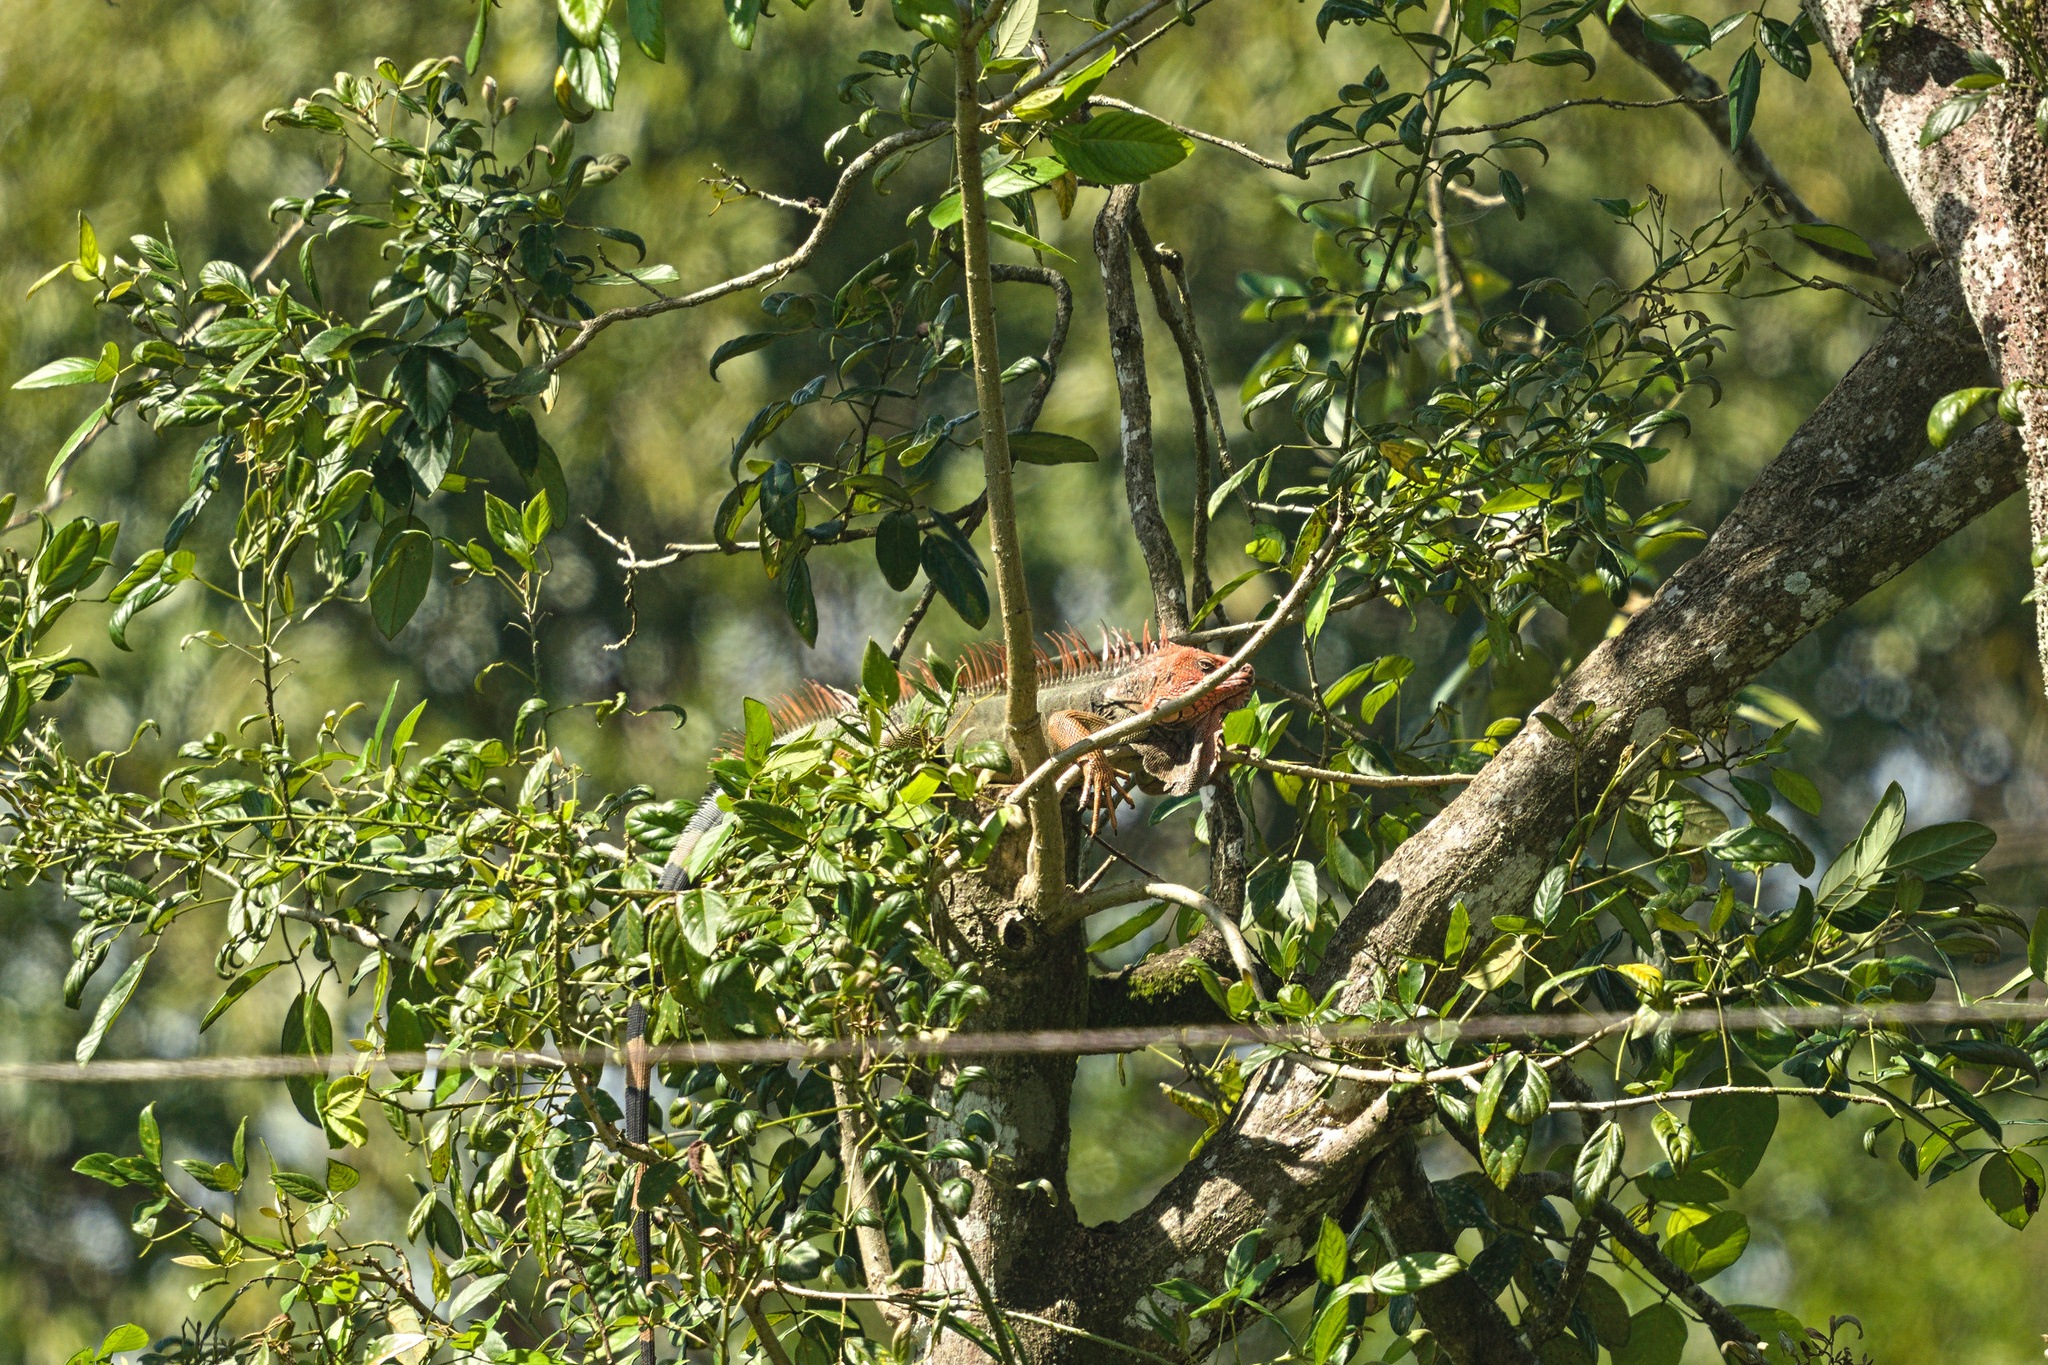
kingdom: Animalia
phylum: Chordata
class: Squamata
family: Iguanidae
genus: Iguana
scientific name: Iguana iguana
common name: Green iguana
